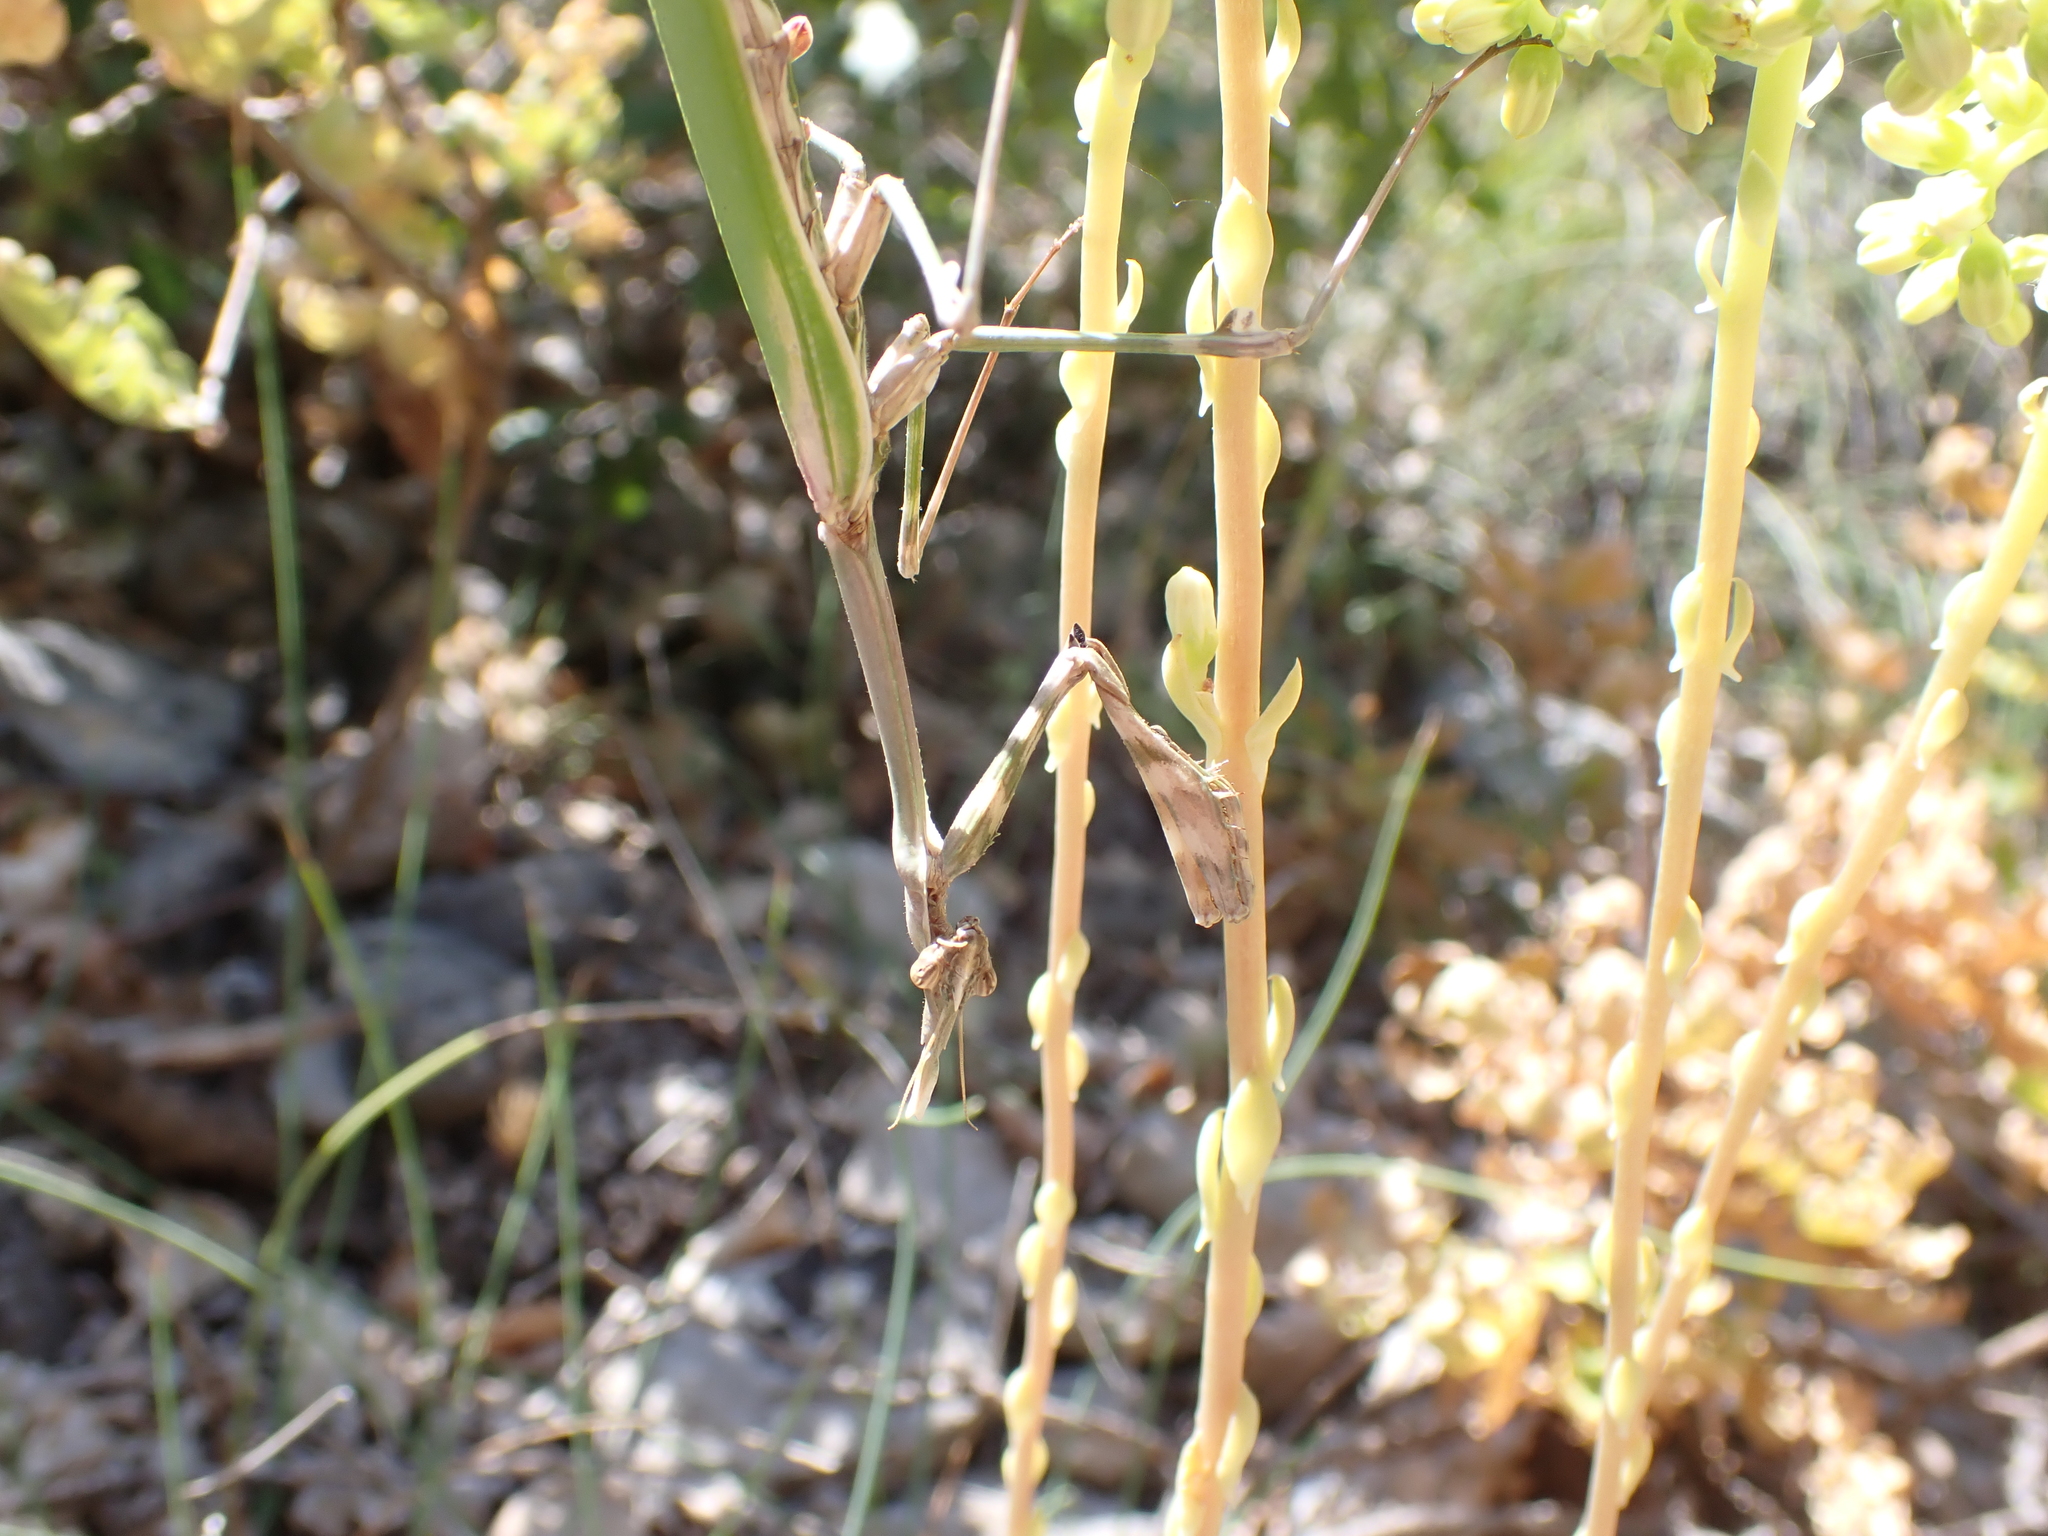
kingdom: Animalia
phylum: Arthropoda
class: Insecta
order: Mantodea
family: Empusidae
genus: Empusa
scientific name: Empusa pennata
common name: Conehead mantis
